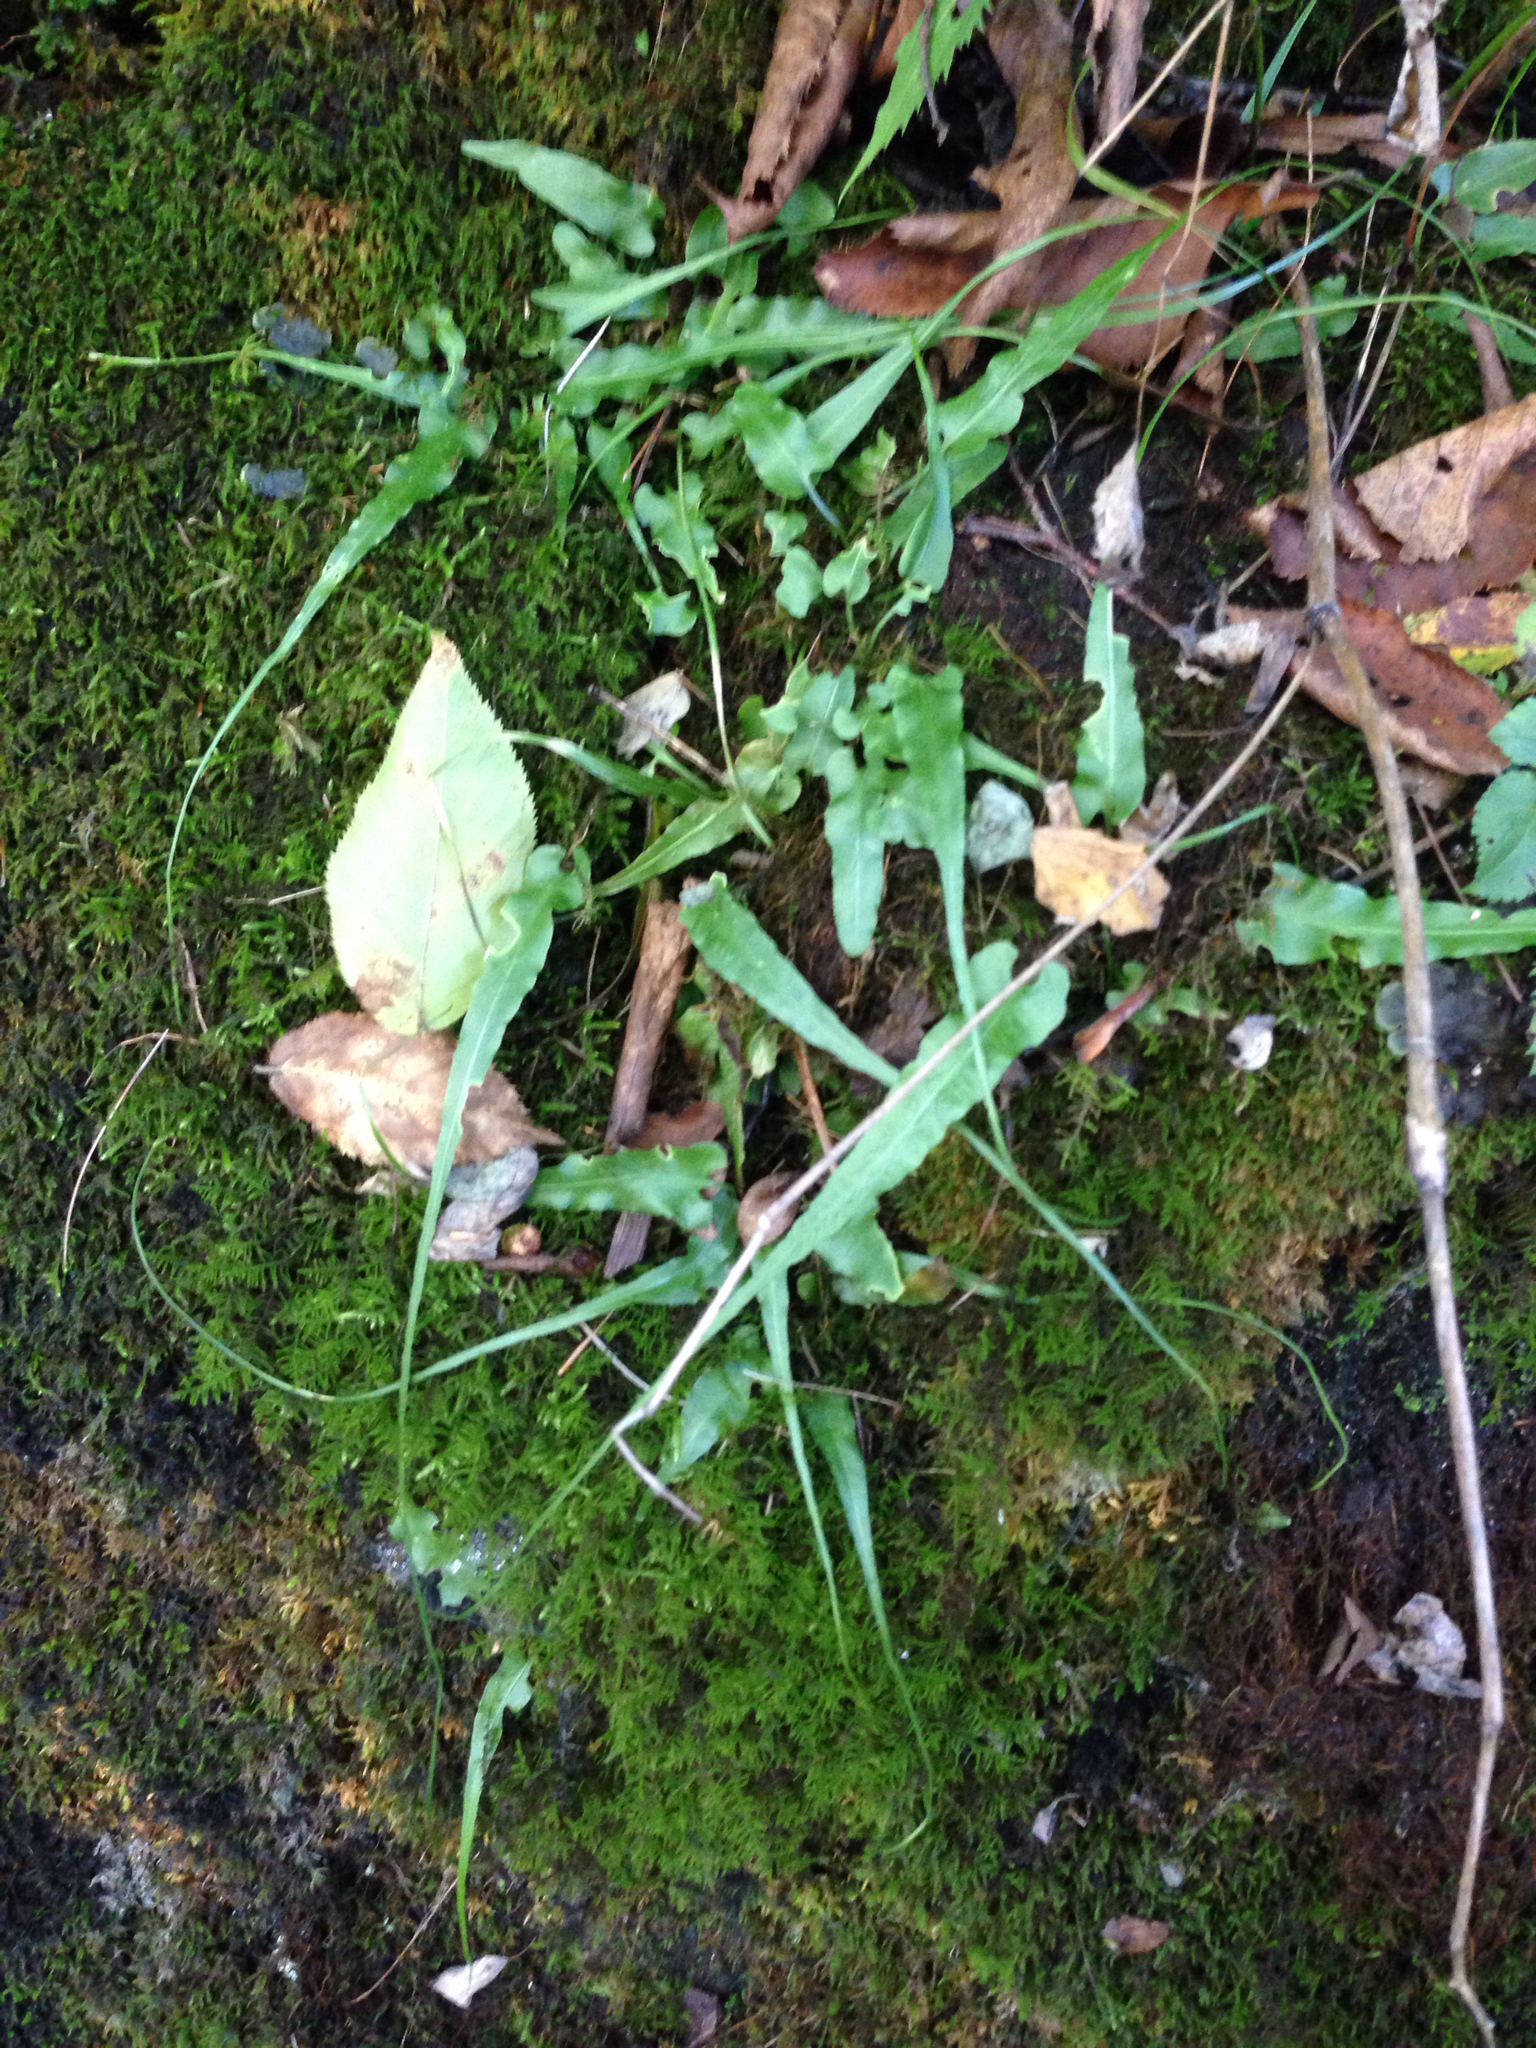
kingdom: Plantae
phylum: Tracheophyta
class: Polypodiopsida
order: Polypodiales
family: Aspleniaceae
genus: Asplenium
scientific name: Asplenium rhizophyllum
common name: Walking fern
